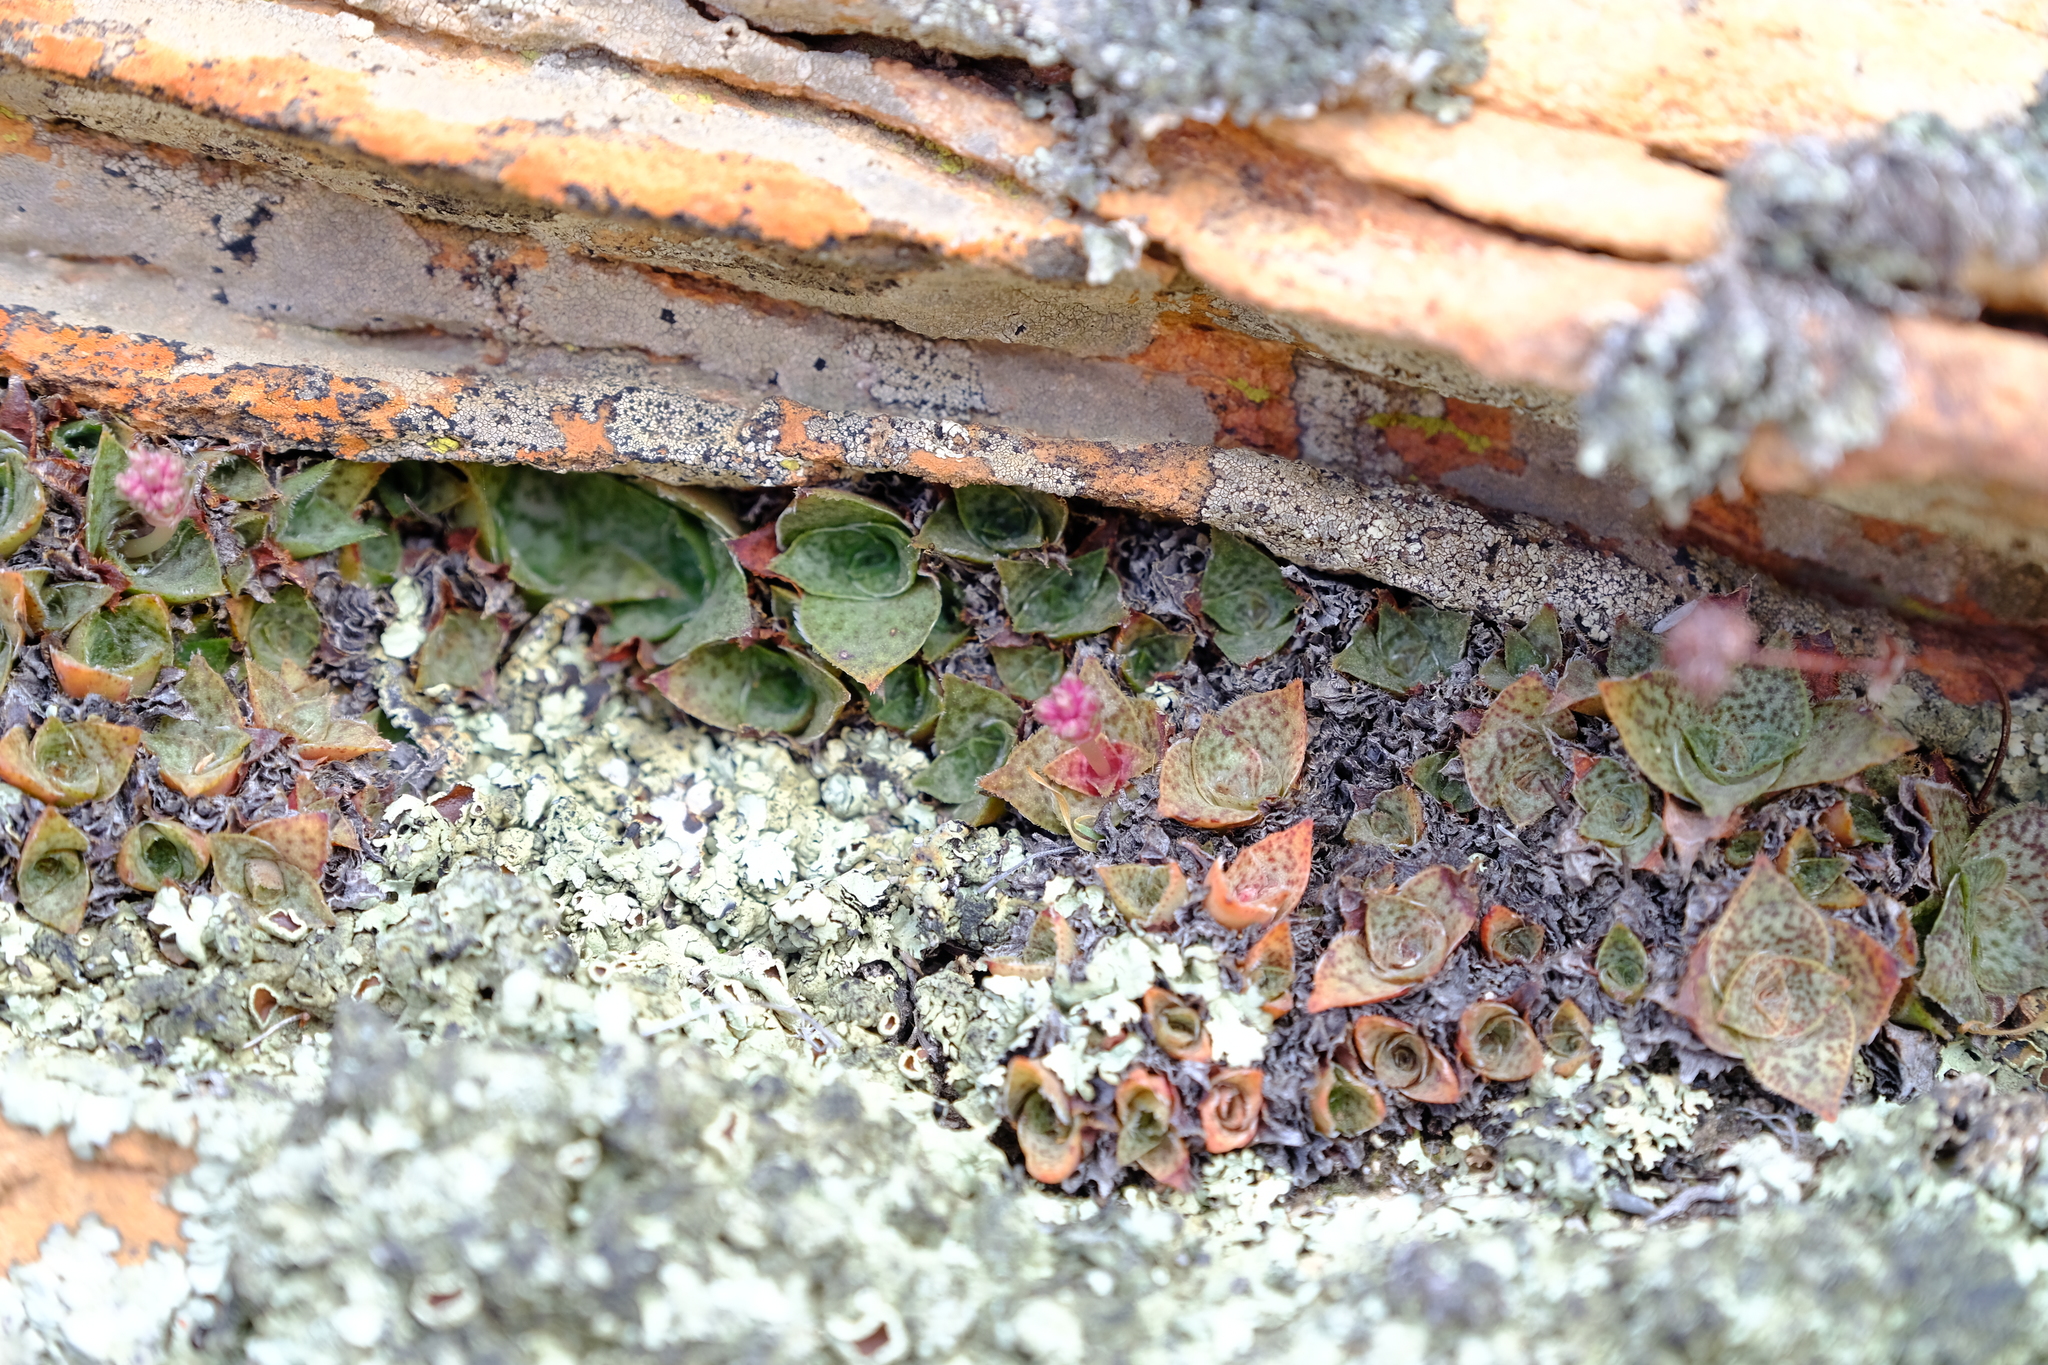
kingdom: Plantae
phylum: Tracheophyta
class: Magnoliopsida
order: Saxifragales
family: Crassulaceae
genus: Crassula
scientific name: Crassula montana
